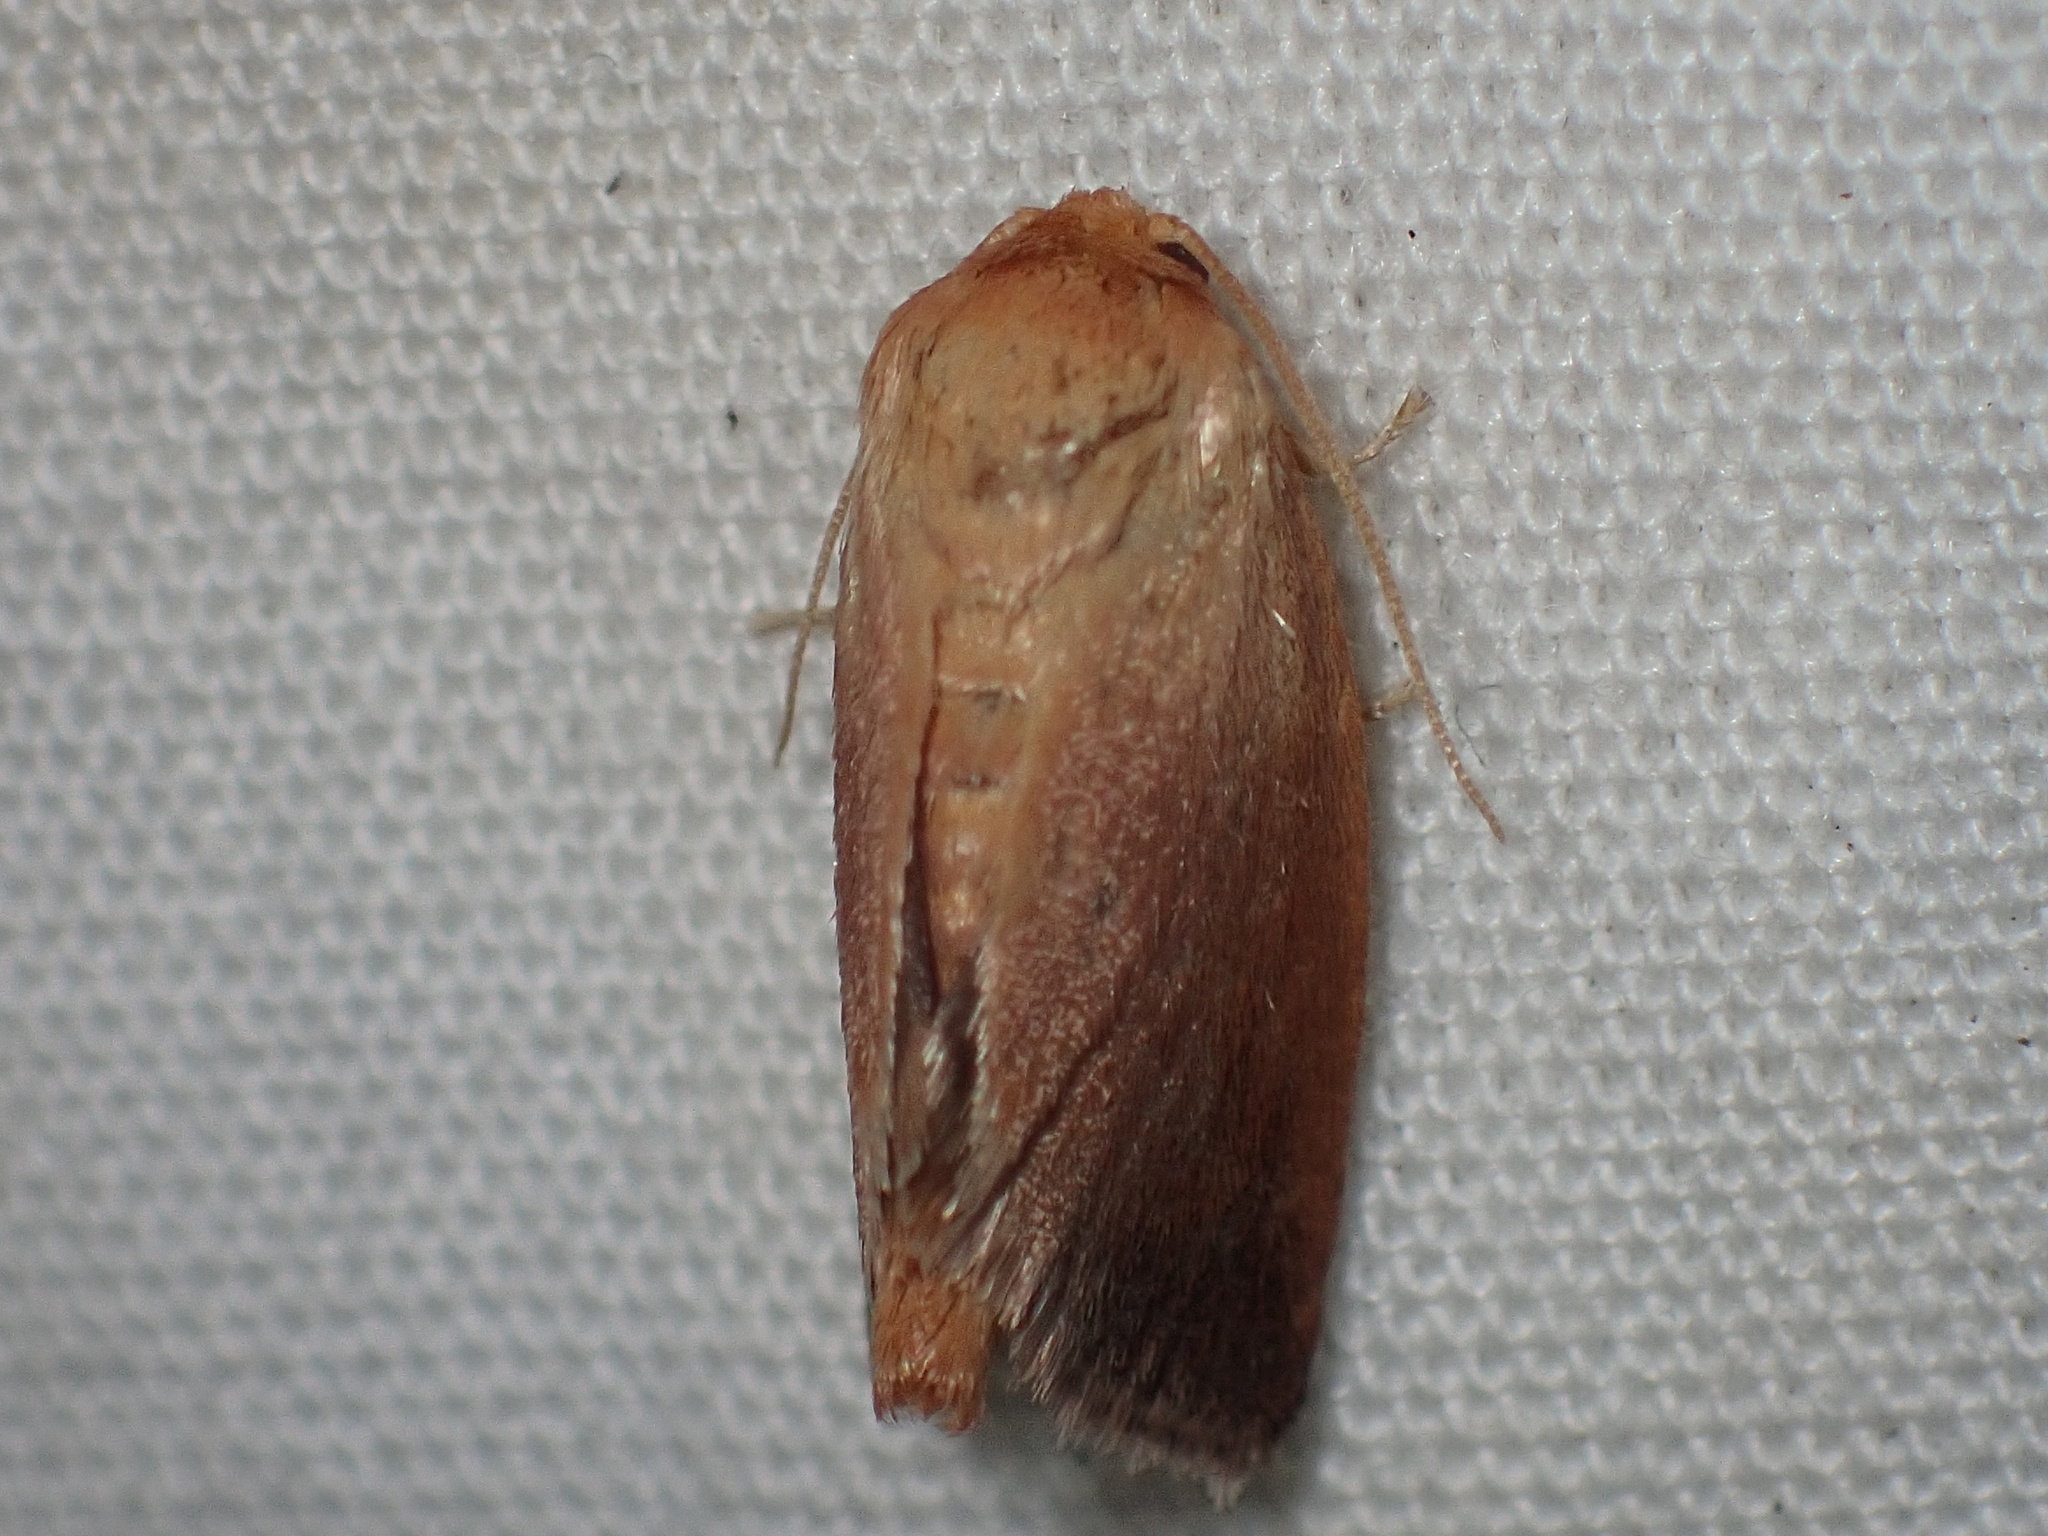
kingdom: Animalia
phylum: Arthropoda
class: Insecta
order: Lepidoptera
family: Limacodidae
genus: Tortricidia
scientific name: Tortricidia testacea
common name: Early button slug moth
